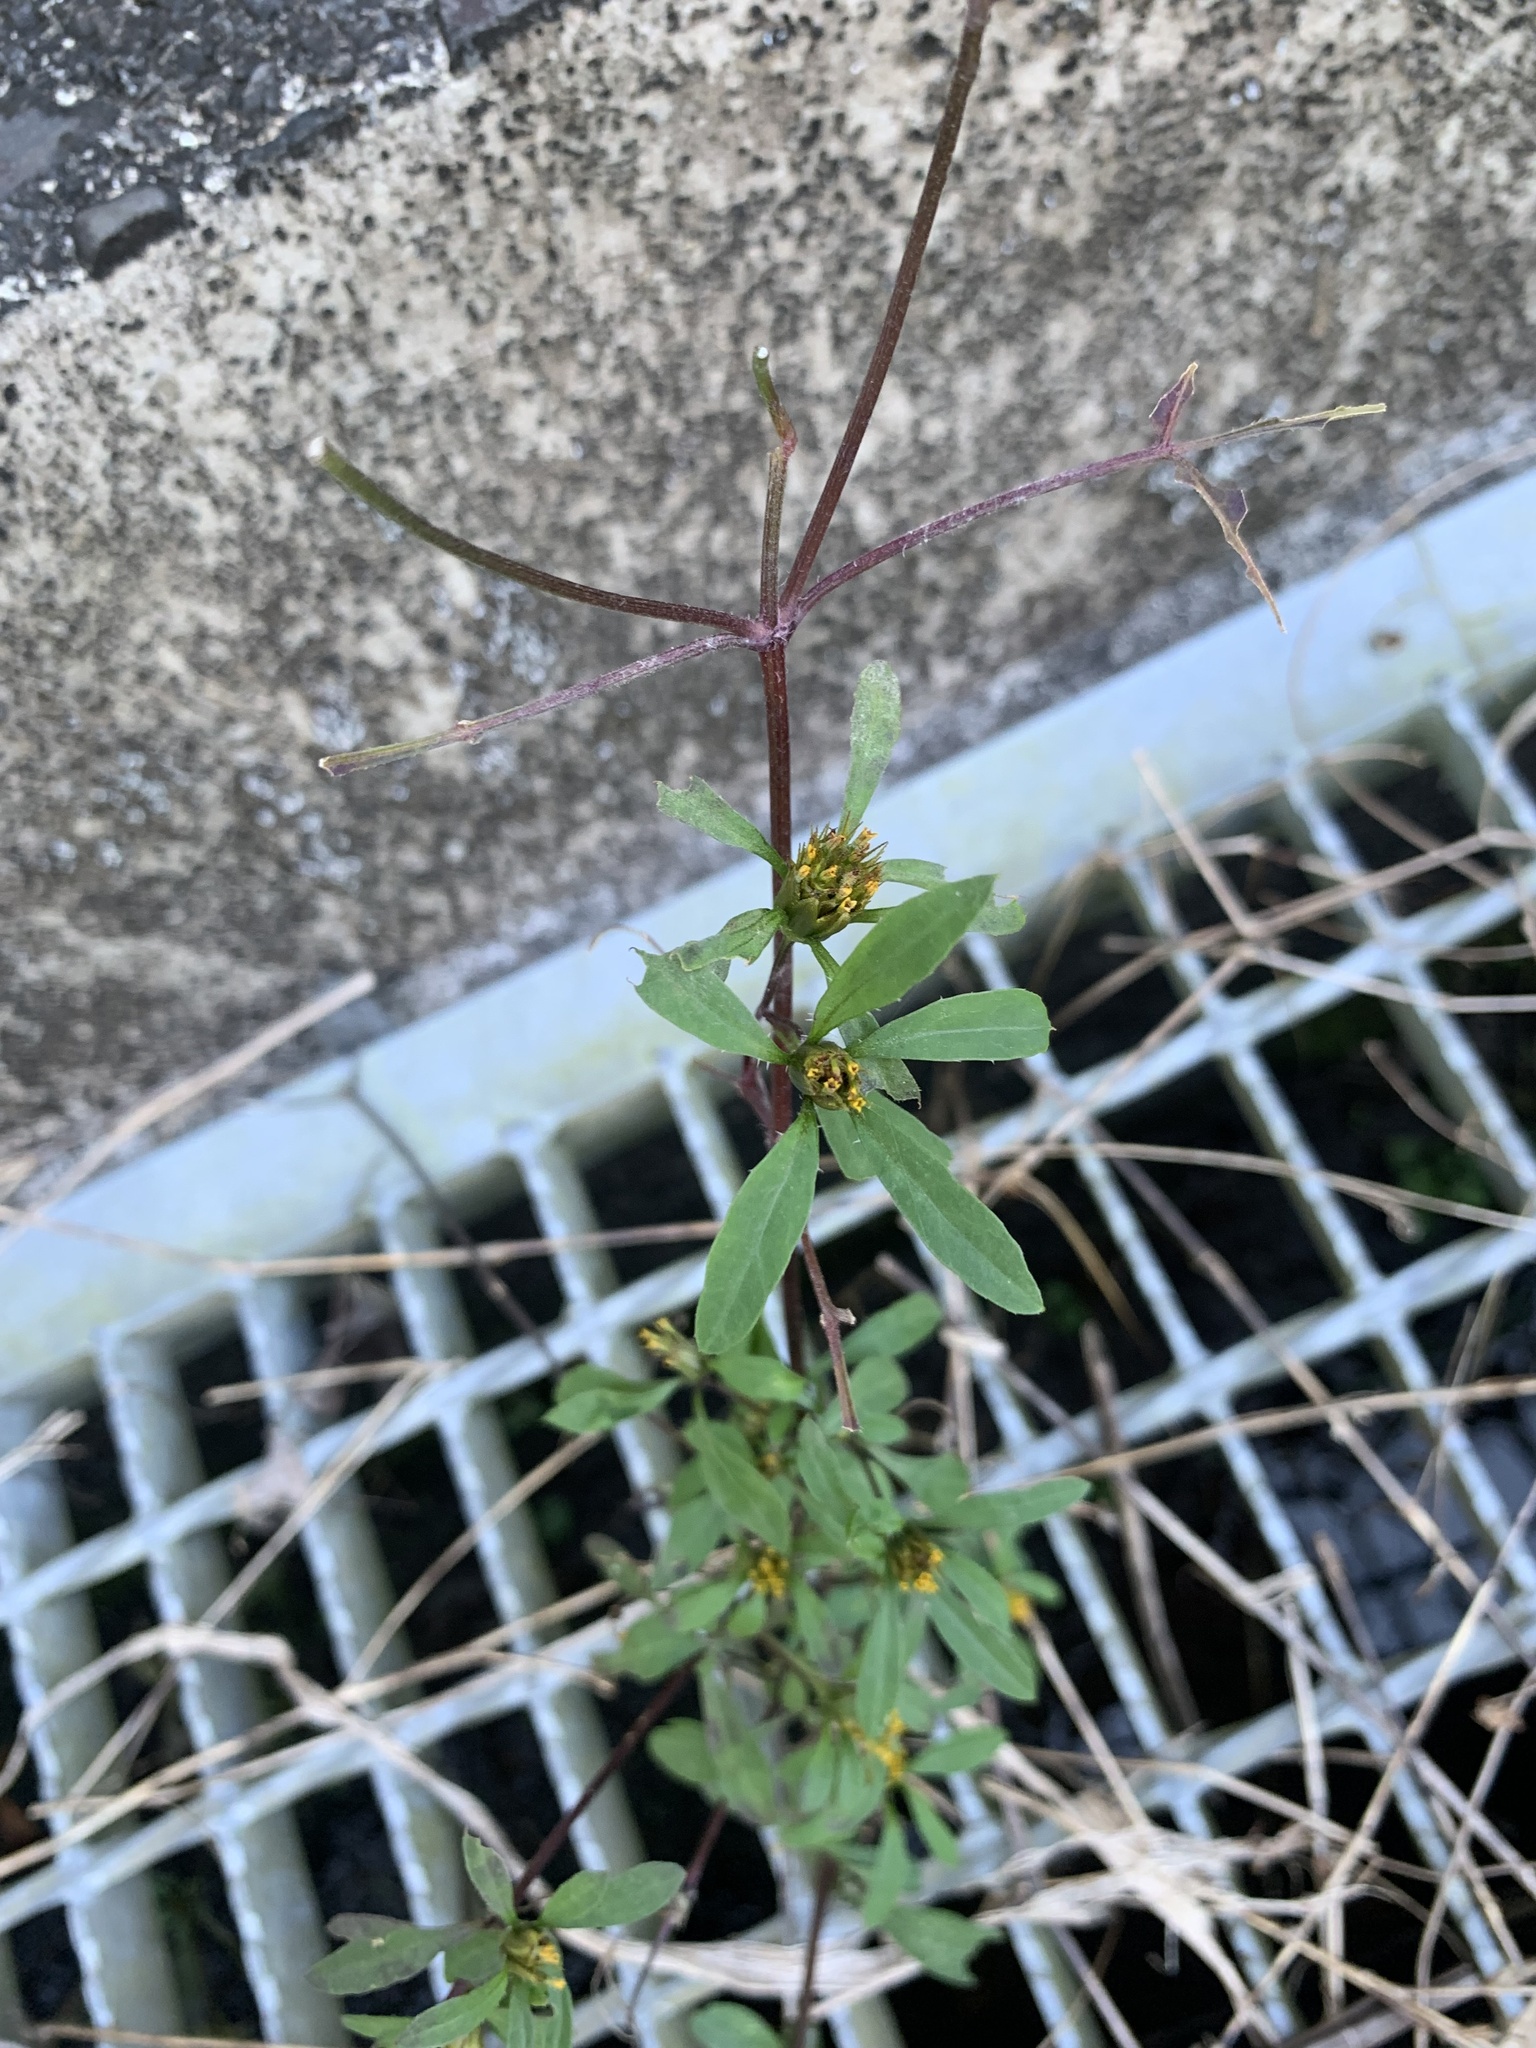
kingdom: Plantae
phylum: Tracheophyta
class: Magnoliopsida
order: Asterales
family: Asteraceae
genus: Bidens
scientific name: Bidens frondosa
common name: Beggarticks
